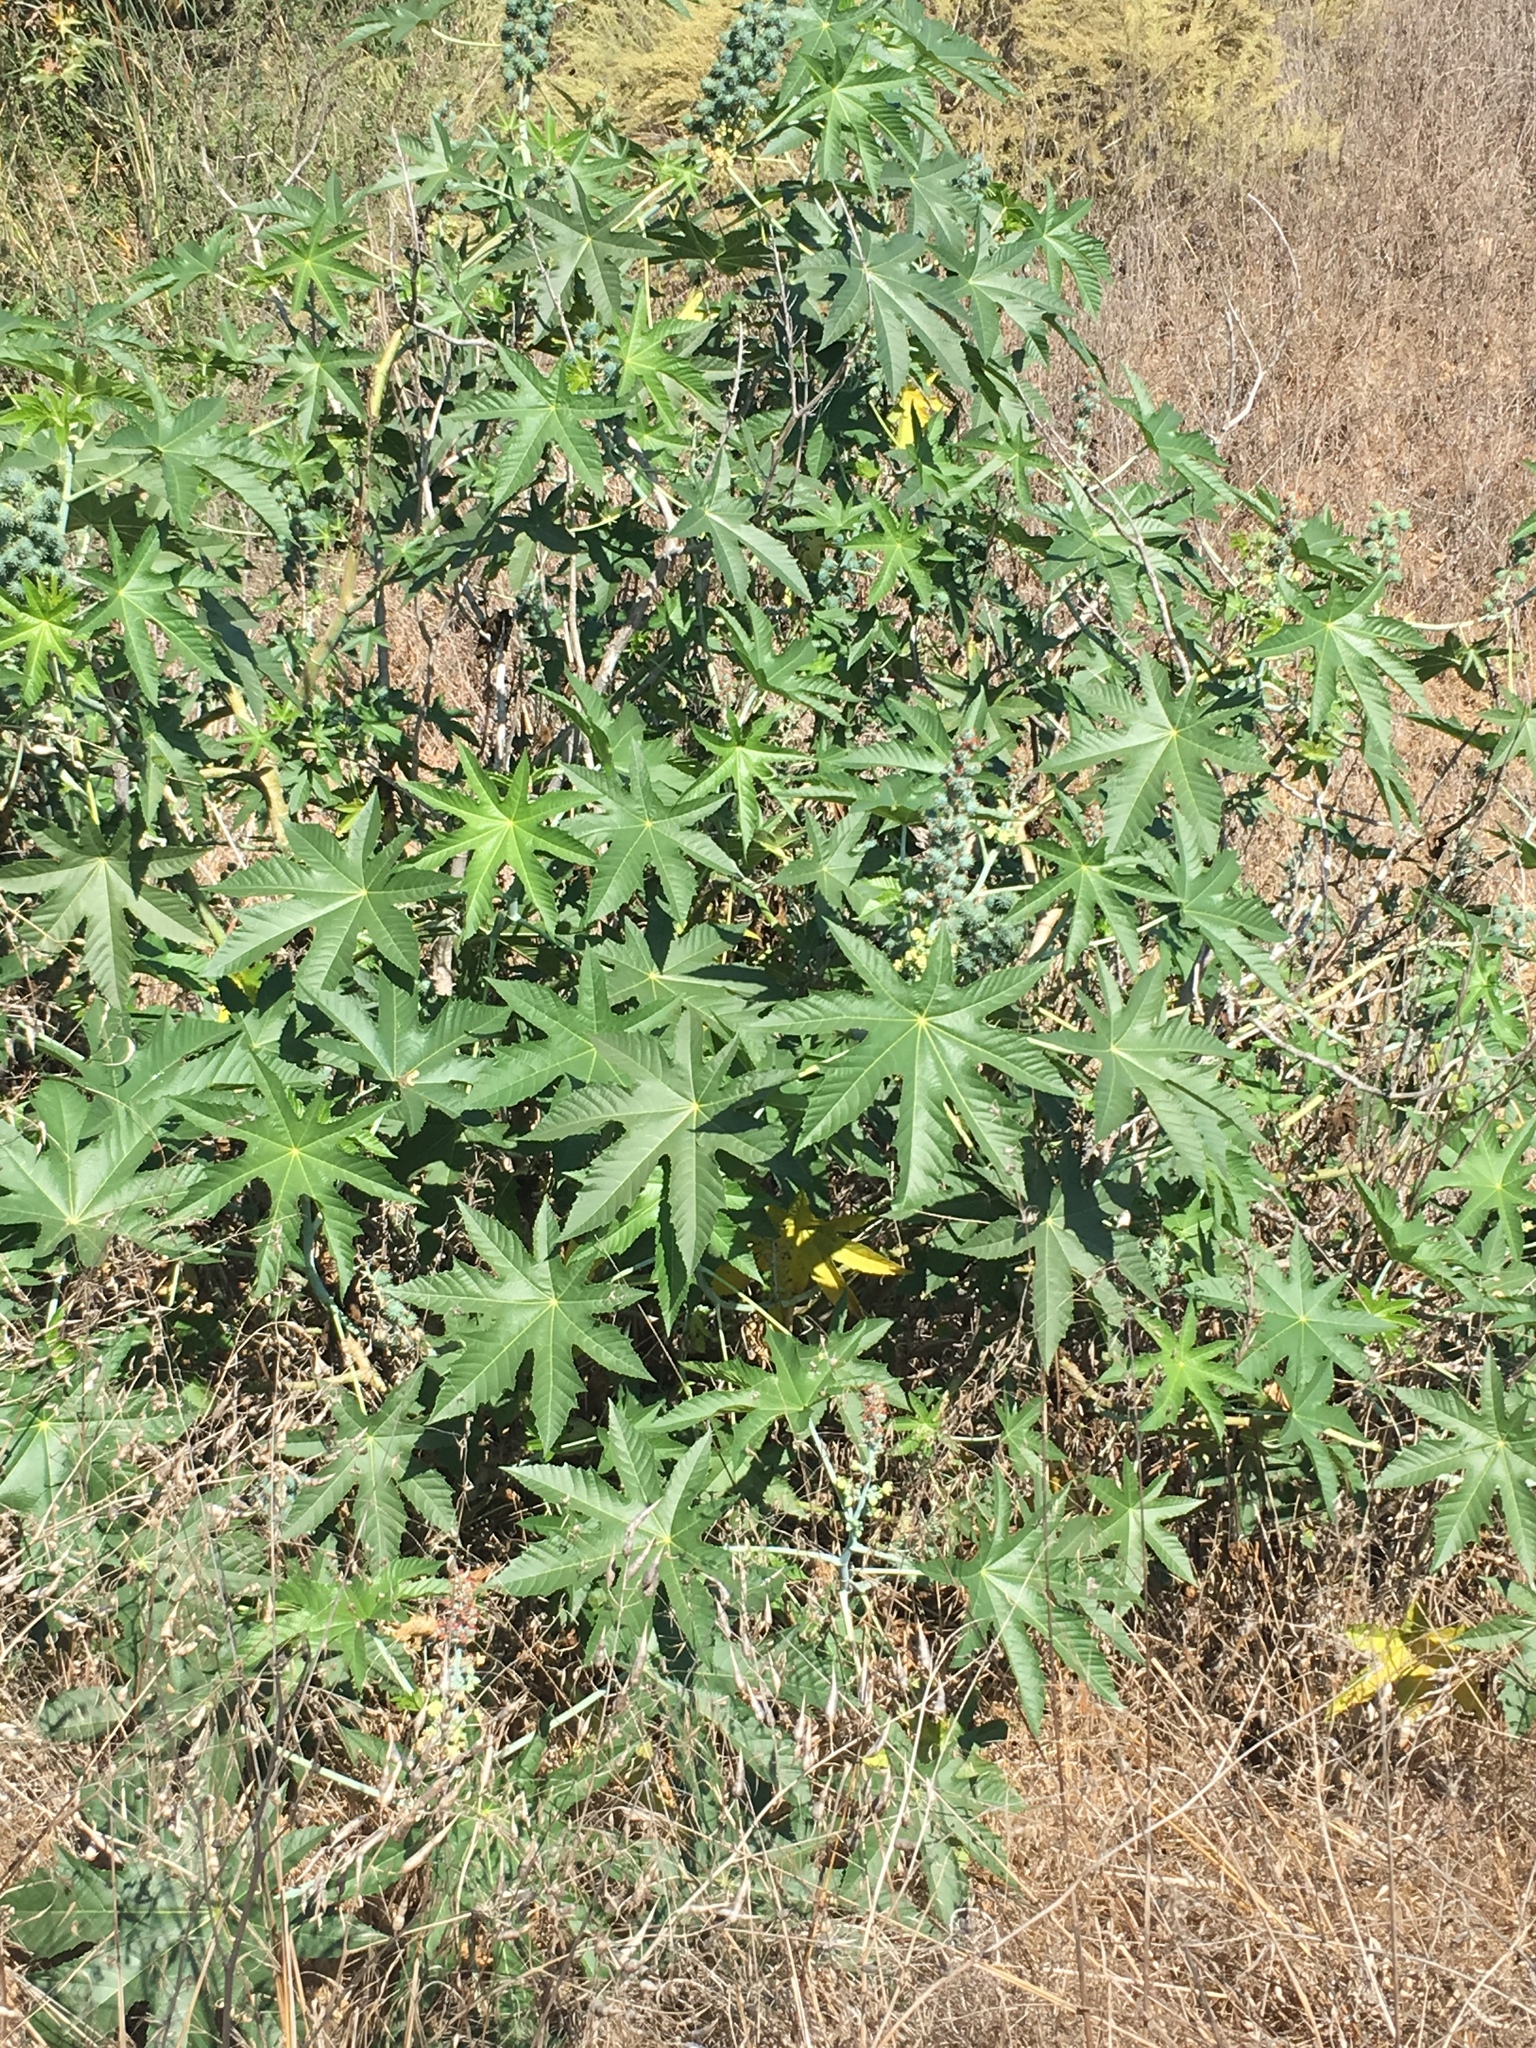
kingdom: Plantae
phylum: Tracheophyta
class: Magnoliopsida
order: Malpighiales
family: Euphorbiaceae
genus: Ricinus
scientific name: Ricinus communis
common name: Castor-oil-plant
